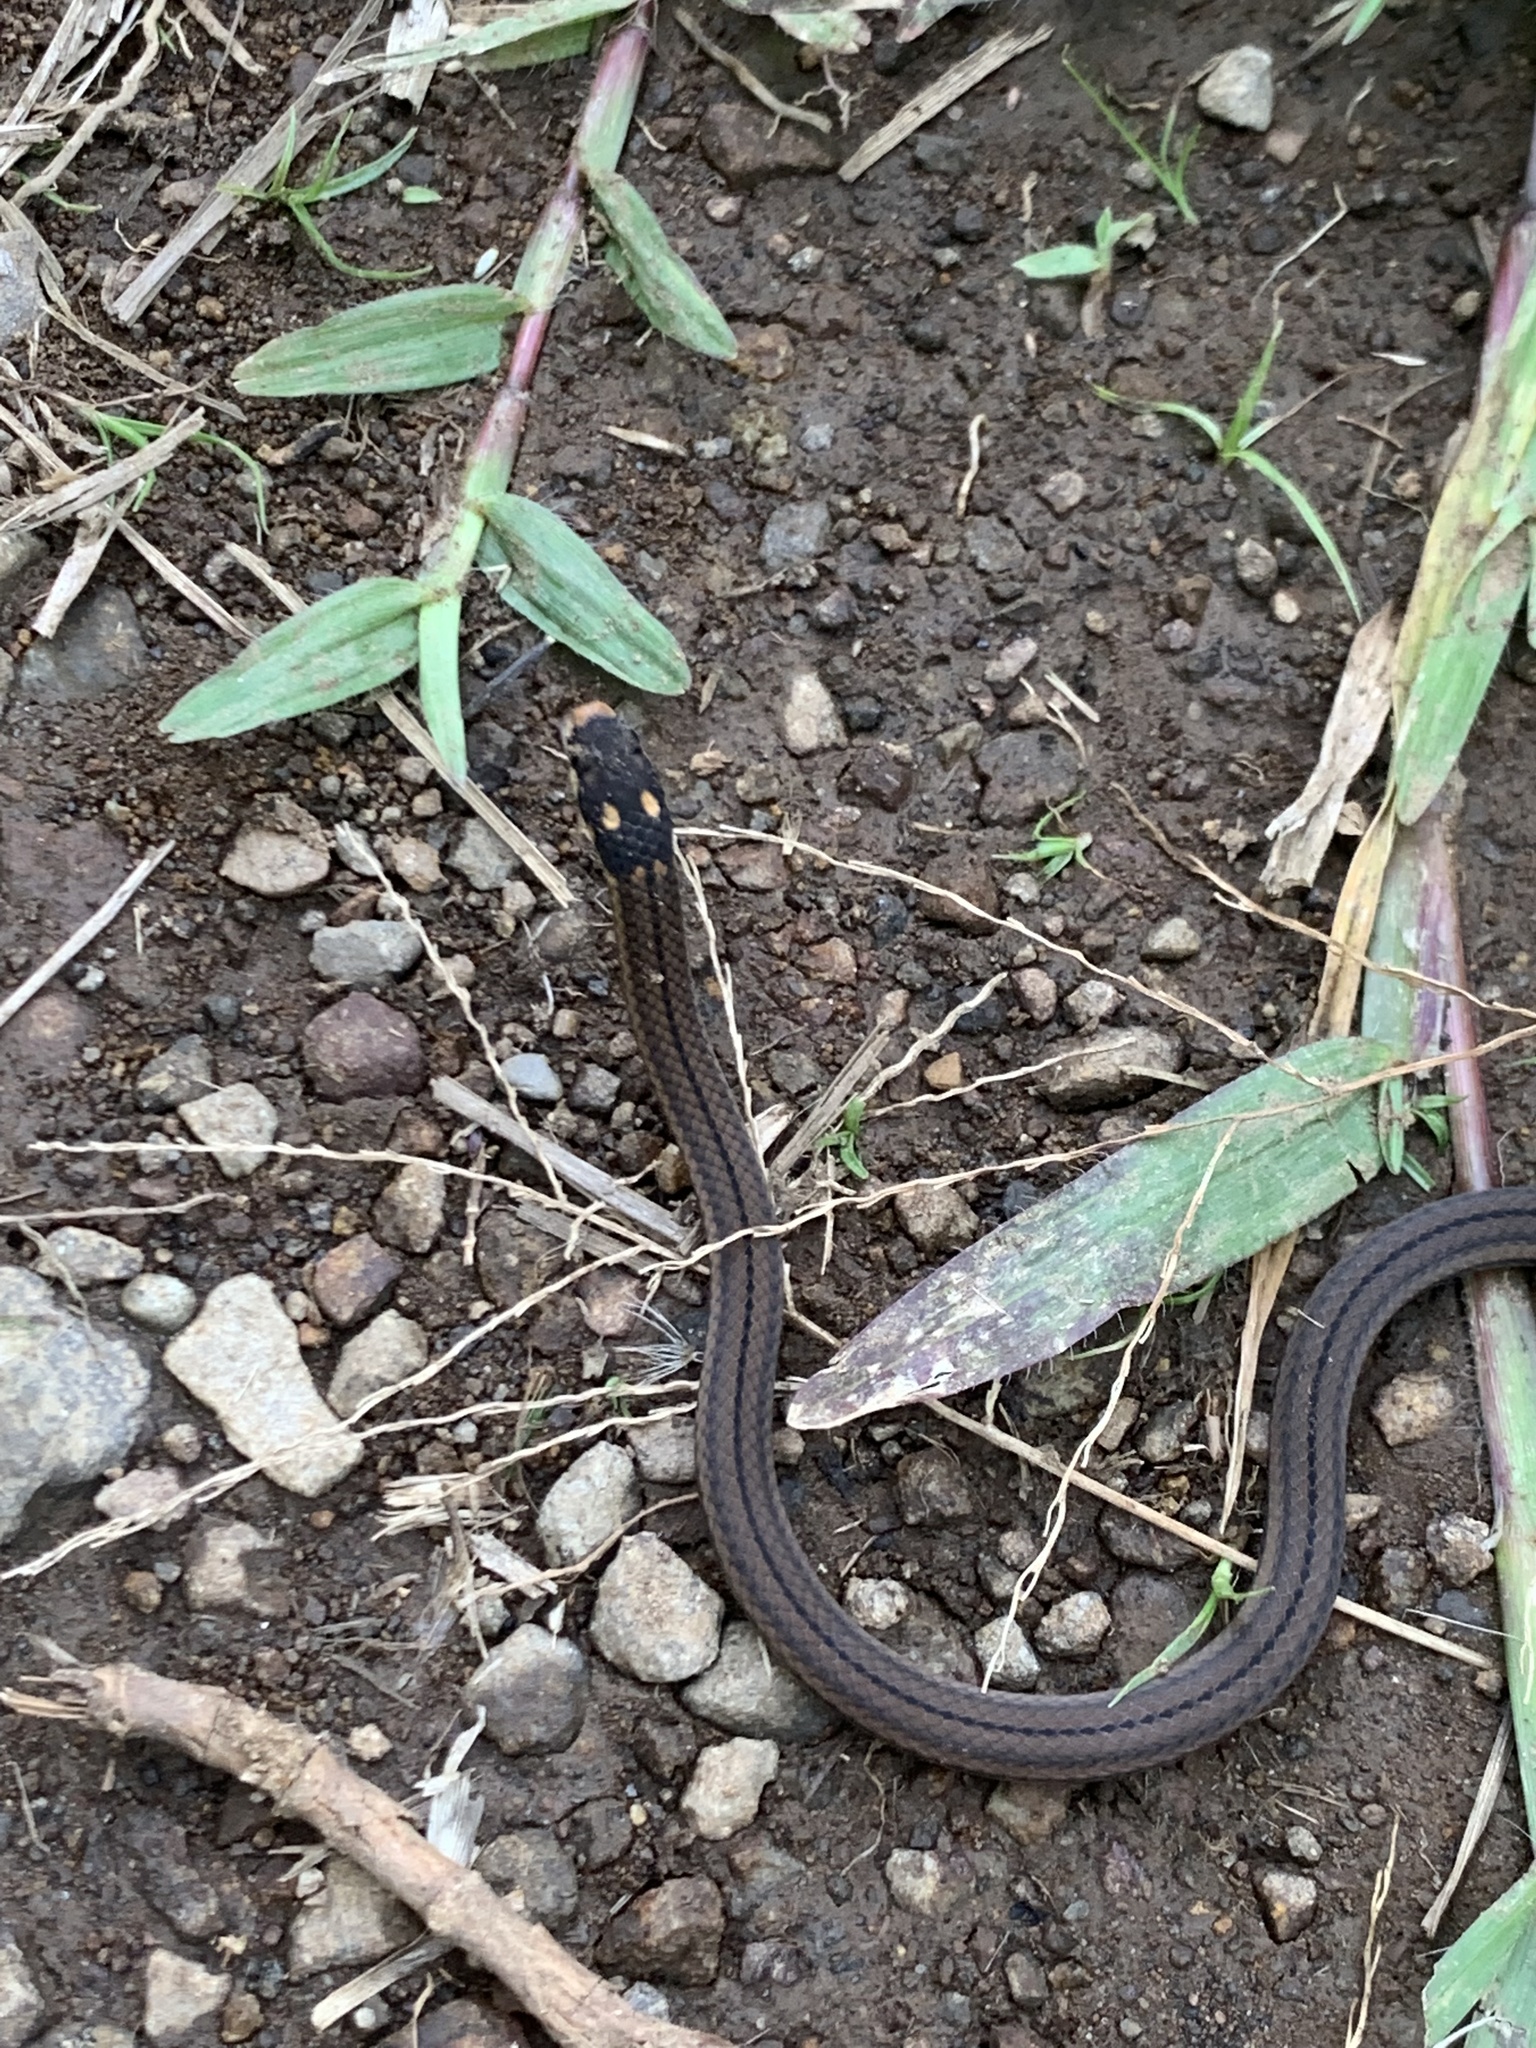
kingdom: Animalia
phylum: Chordata
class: Squamata
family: Colubridae
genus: Tantilla
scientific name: Tantilla melanocephala
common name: Black-headed snake
